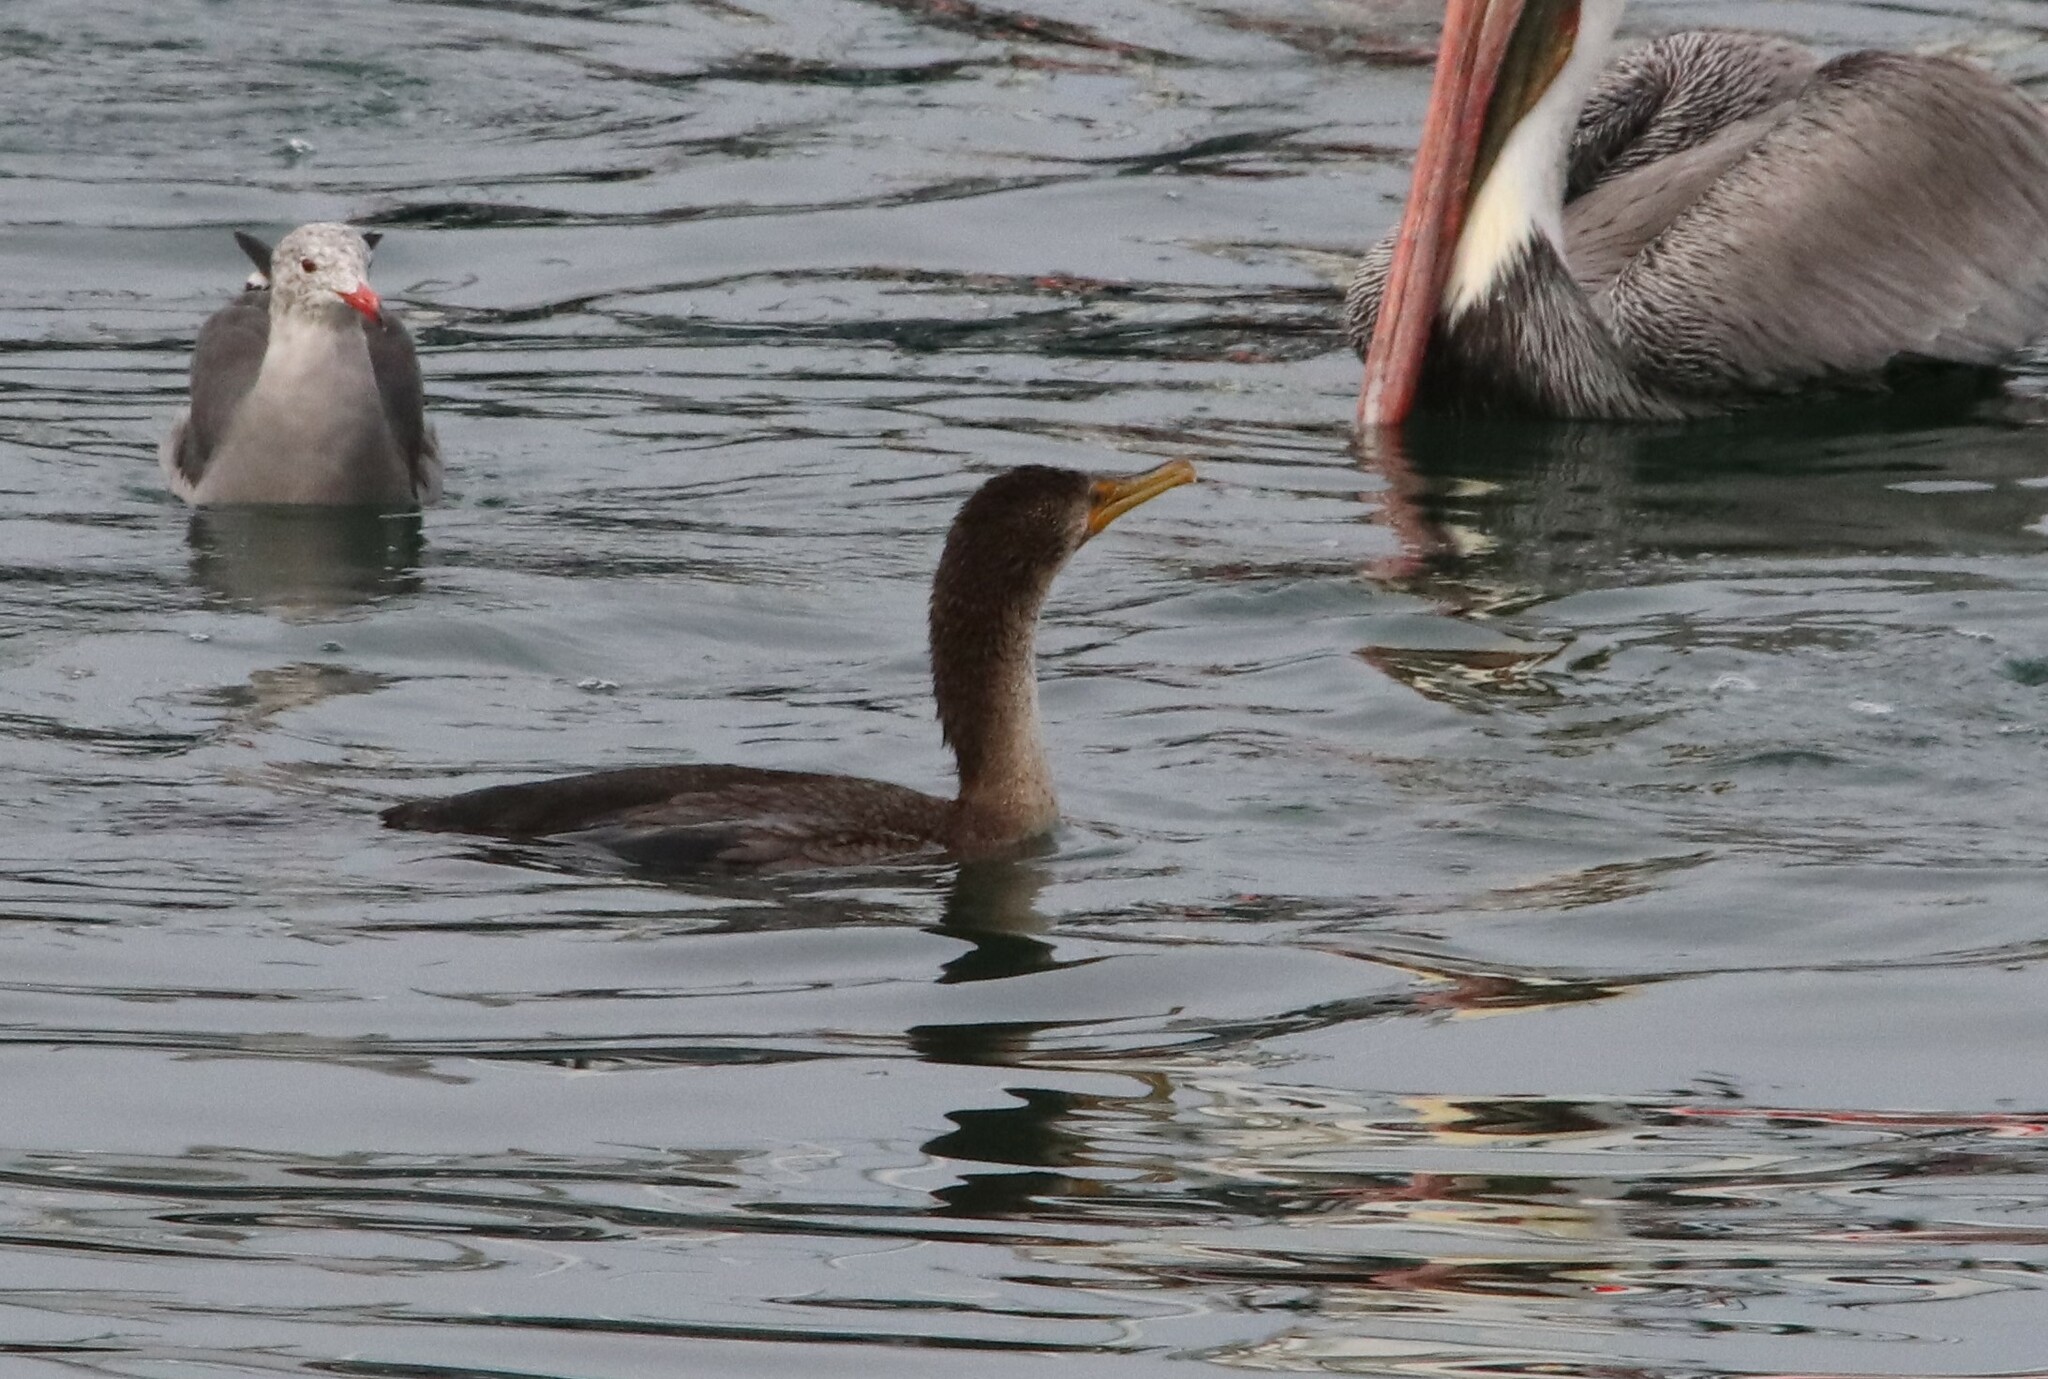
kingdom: Animalia
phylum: Chordata
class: Aves
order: Suliformes
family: Phalacrocoracidae
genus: Phalacrocorax
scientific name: Phalacrocorax auritus
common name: Double-crested cormorant
